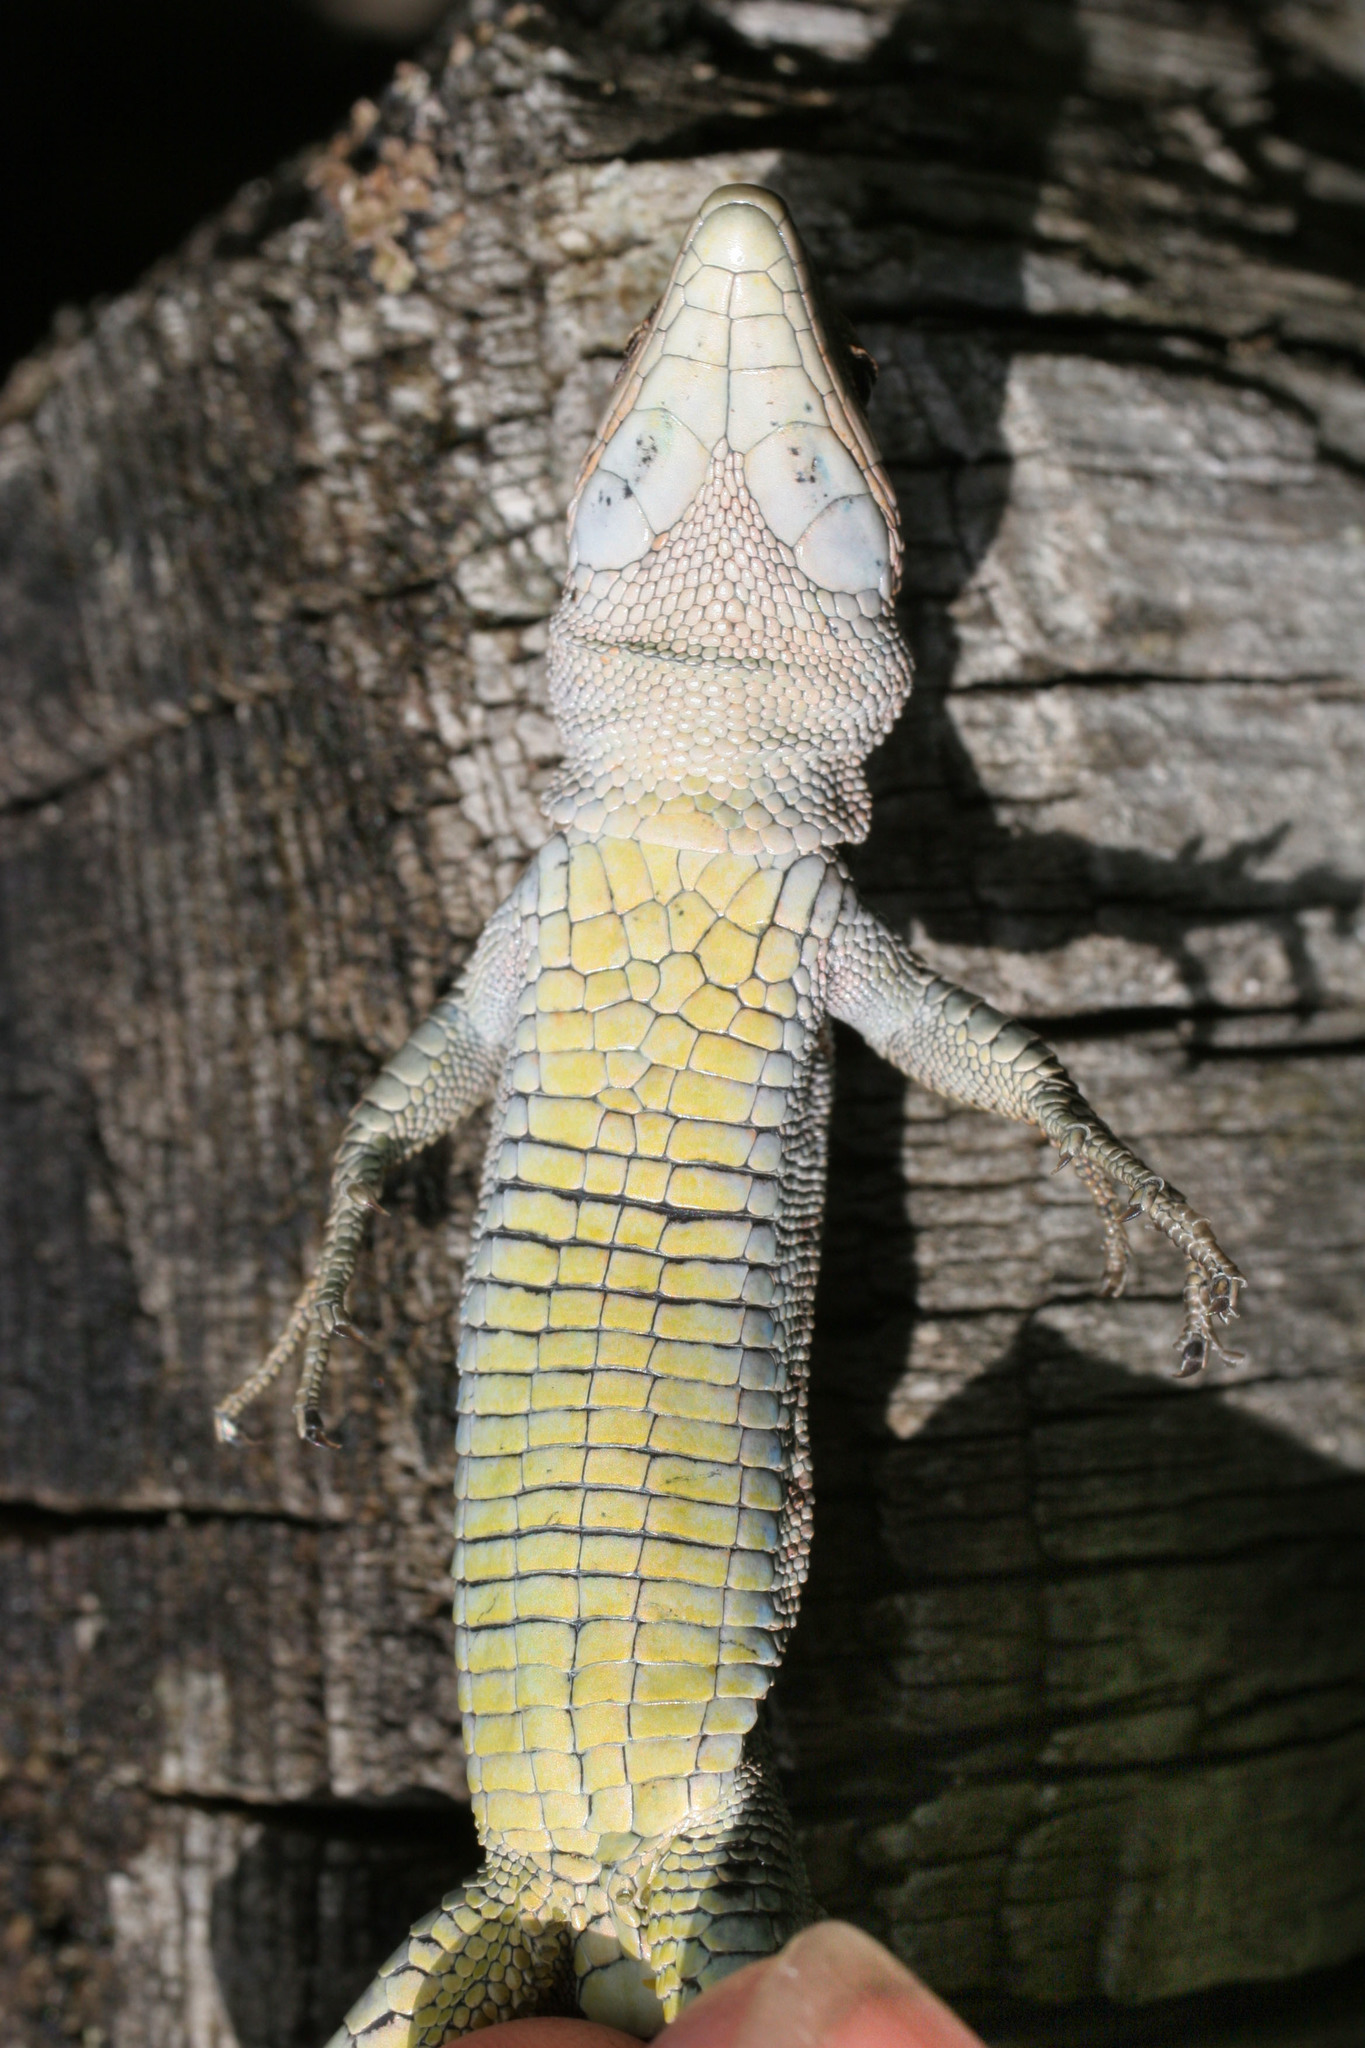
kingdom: Animalia
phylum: Chordata
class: Squamata
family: Lacertidae
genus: Dinarolacerta
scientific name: Dinarolacerta mosorensis
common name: Mosor rock lizard
